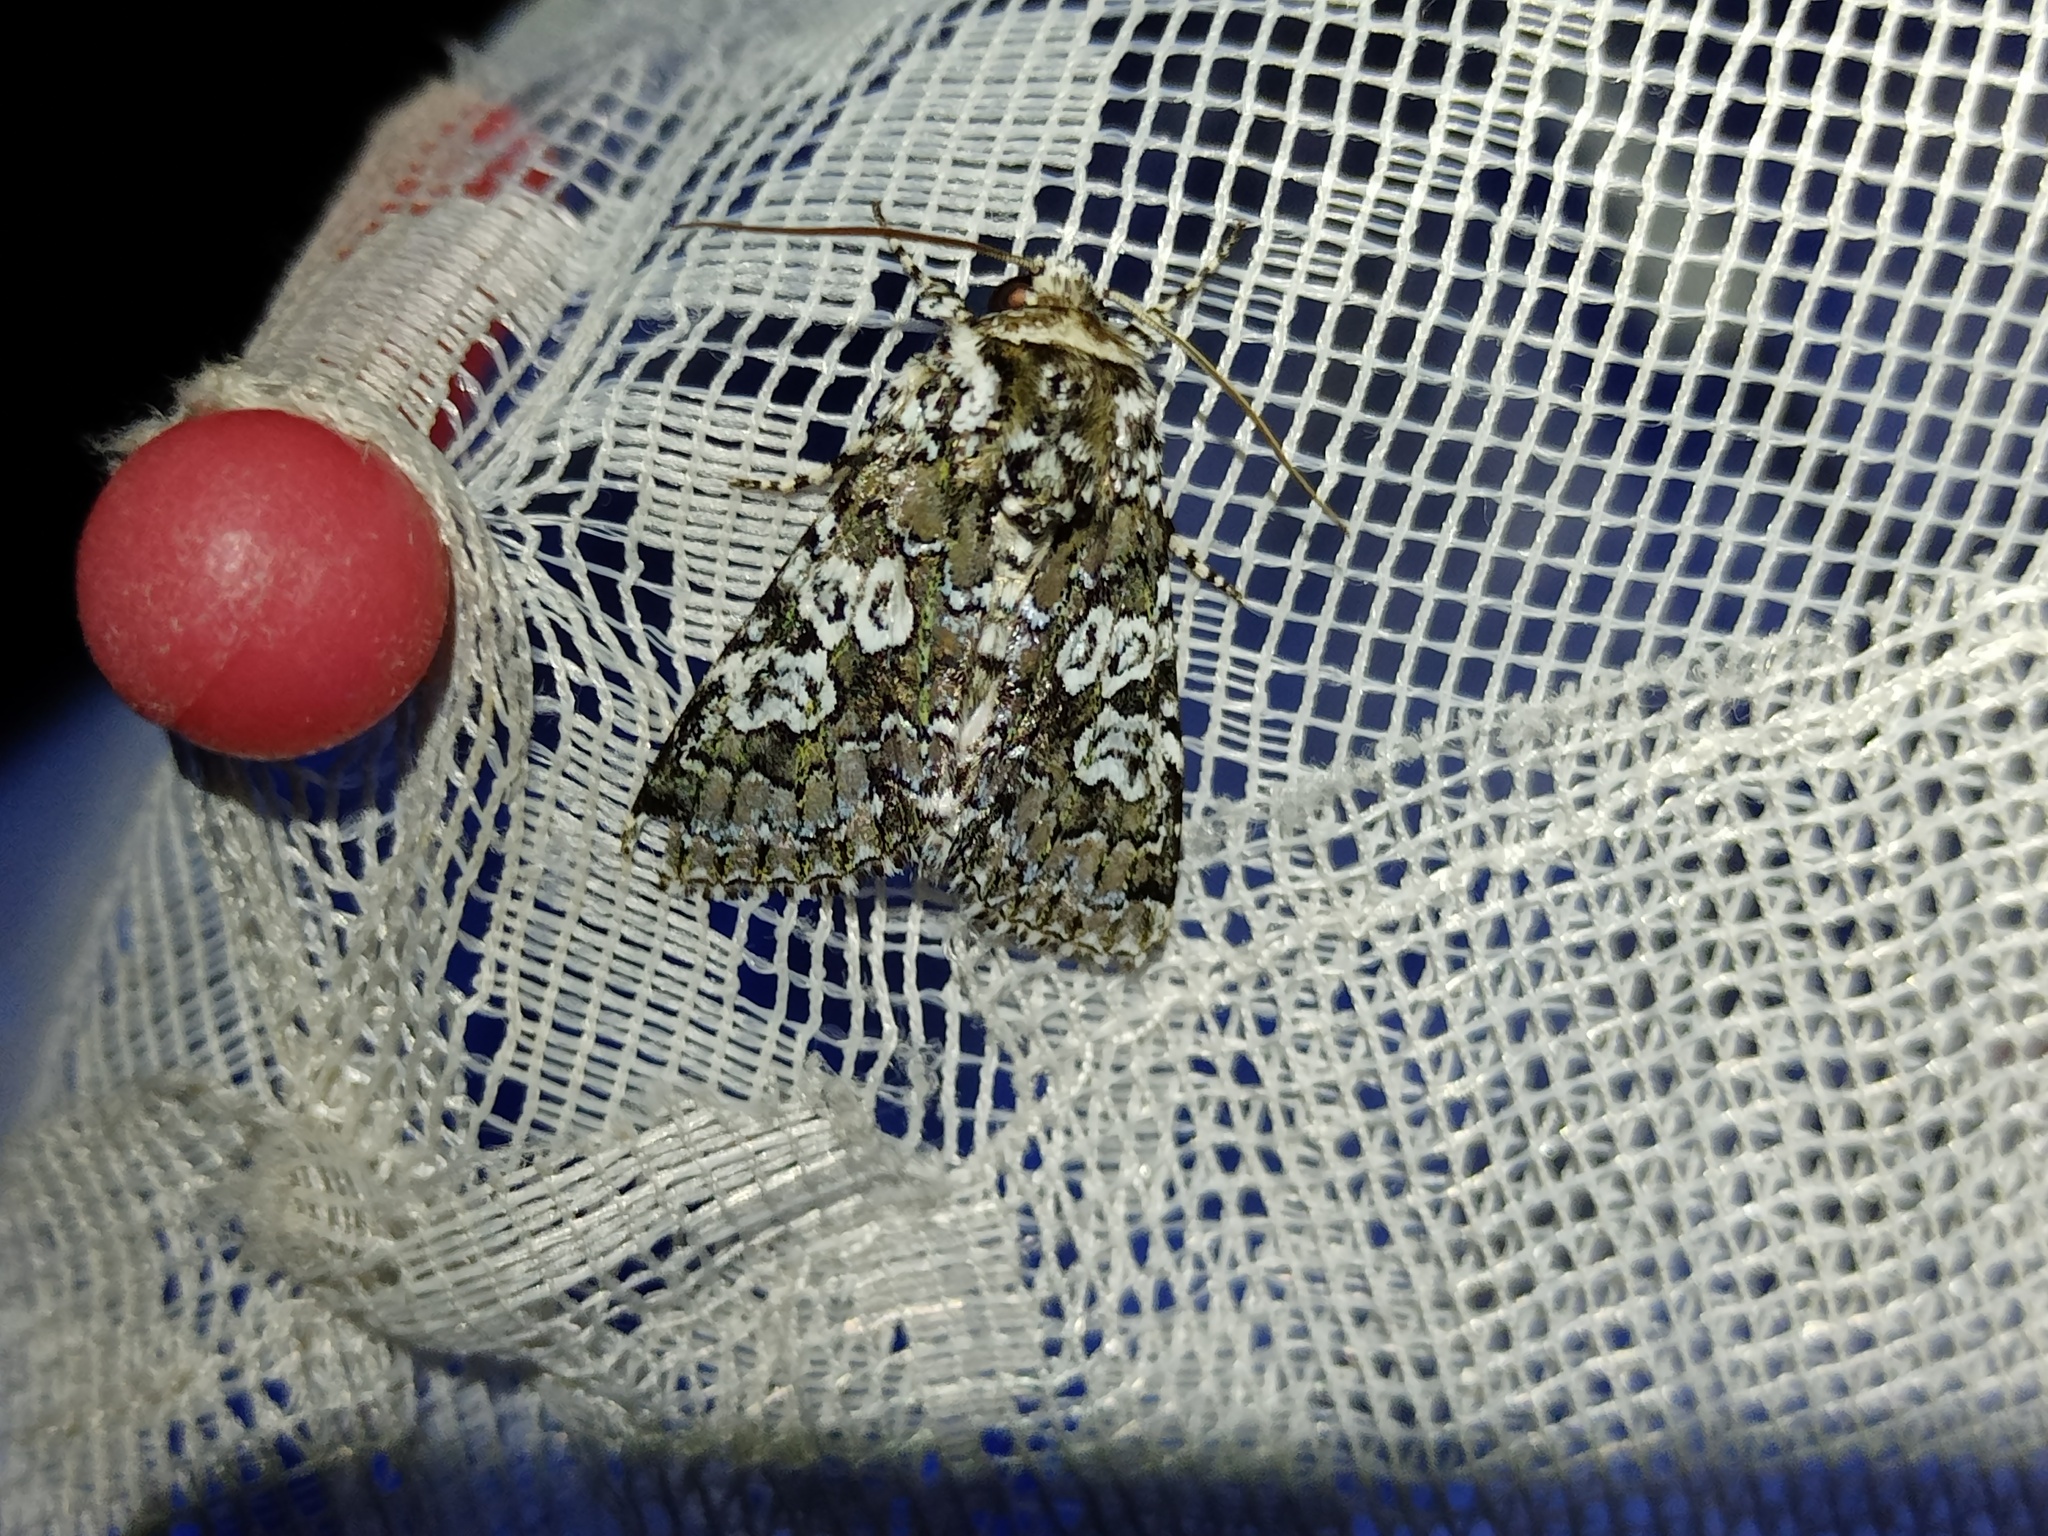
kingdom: Animalia
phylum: Arthropoda
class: Insecta
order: Lepidoptera
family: Noctuidae
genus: Lamprosticta
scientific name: Lamprosticta culta
